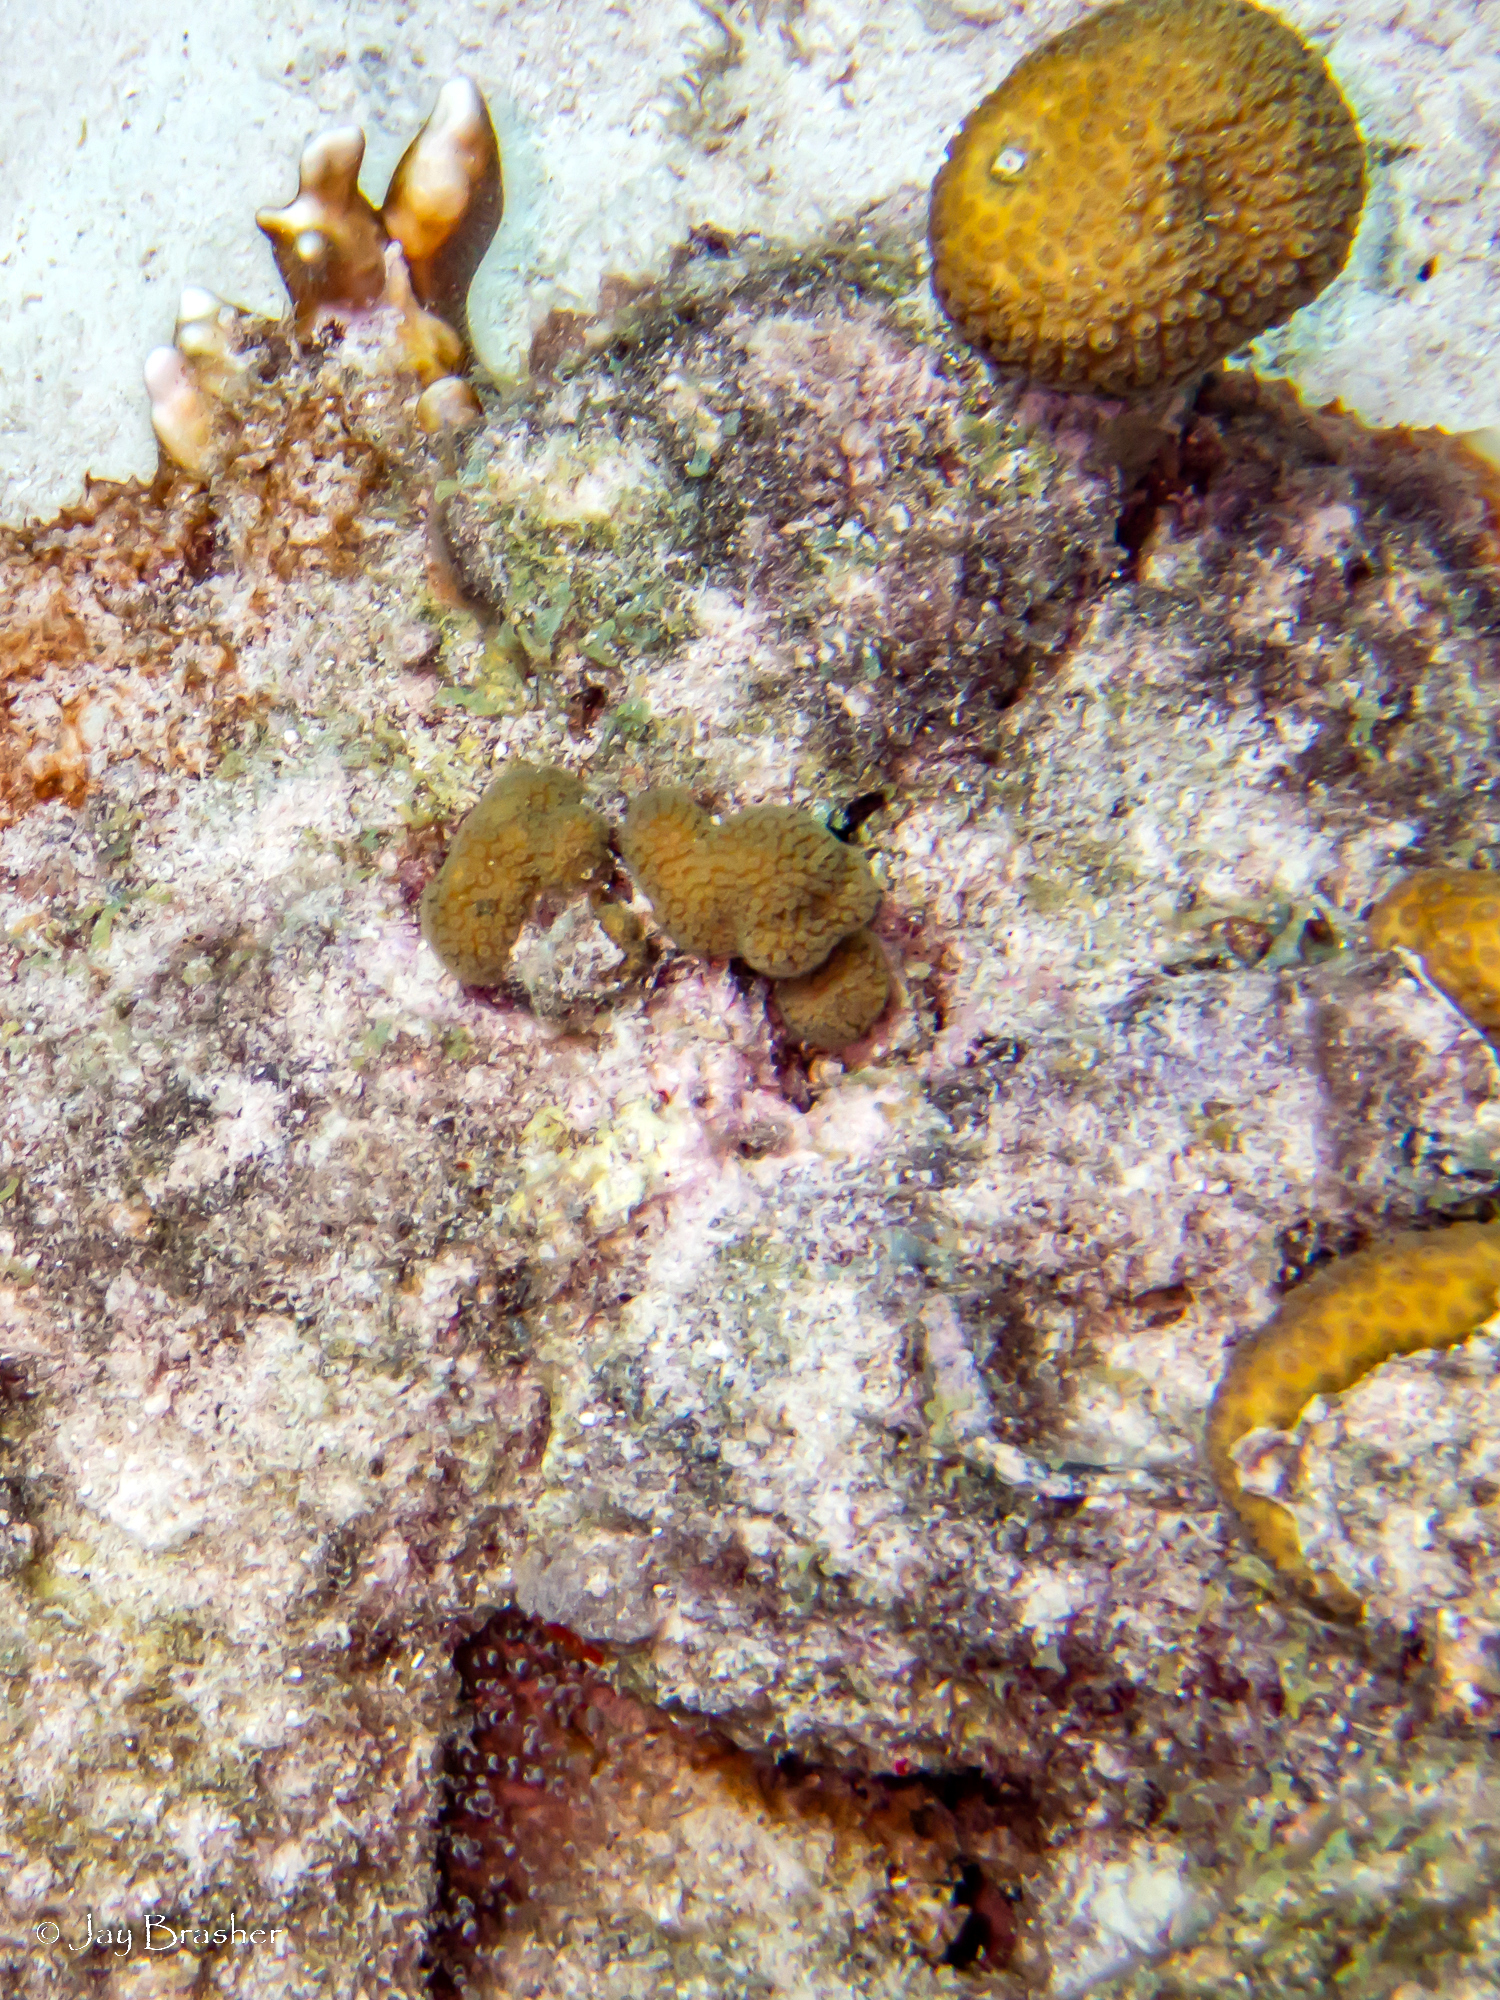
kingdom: Animalia
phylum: Cnidaria
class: Anthozoa
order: Scleractinia
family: Pocilloporidae
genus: Madracis
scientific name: Madracis decactis
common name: Ten-ray star coral
